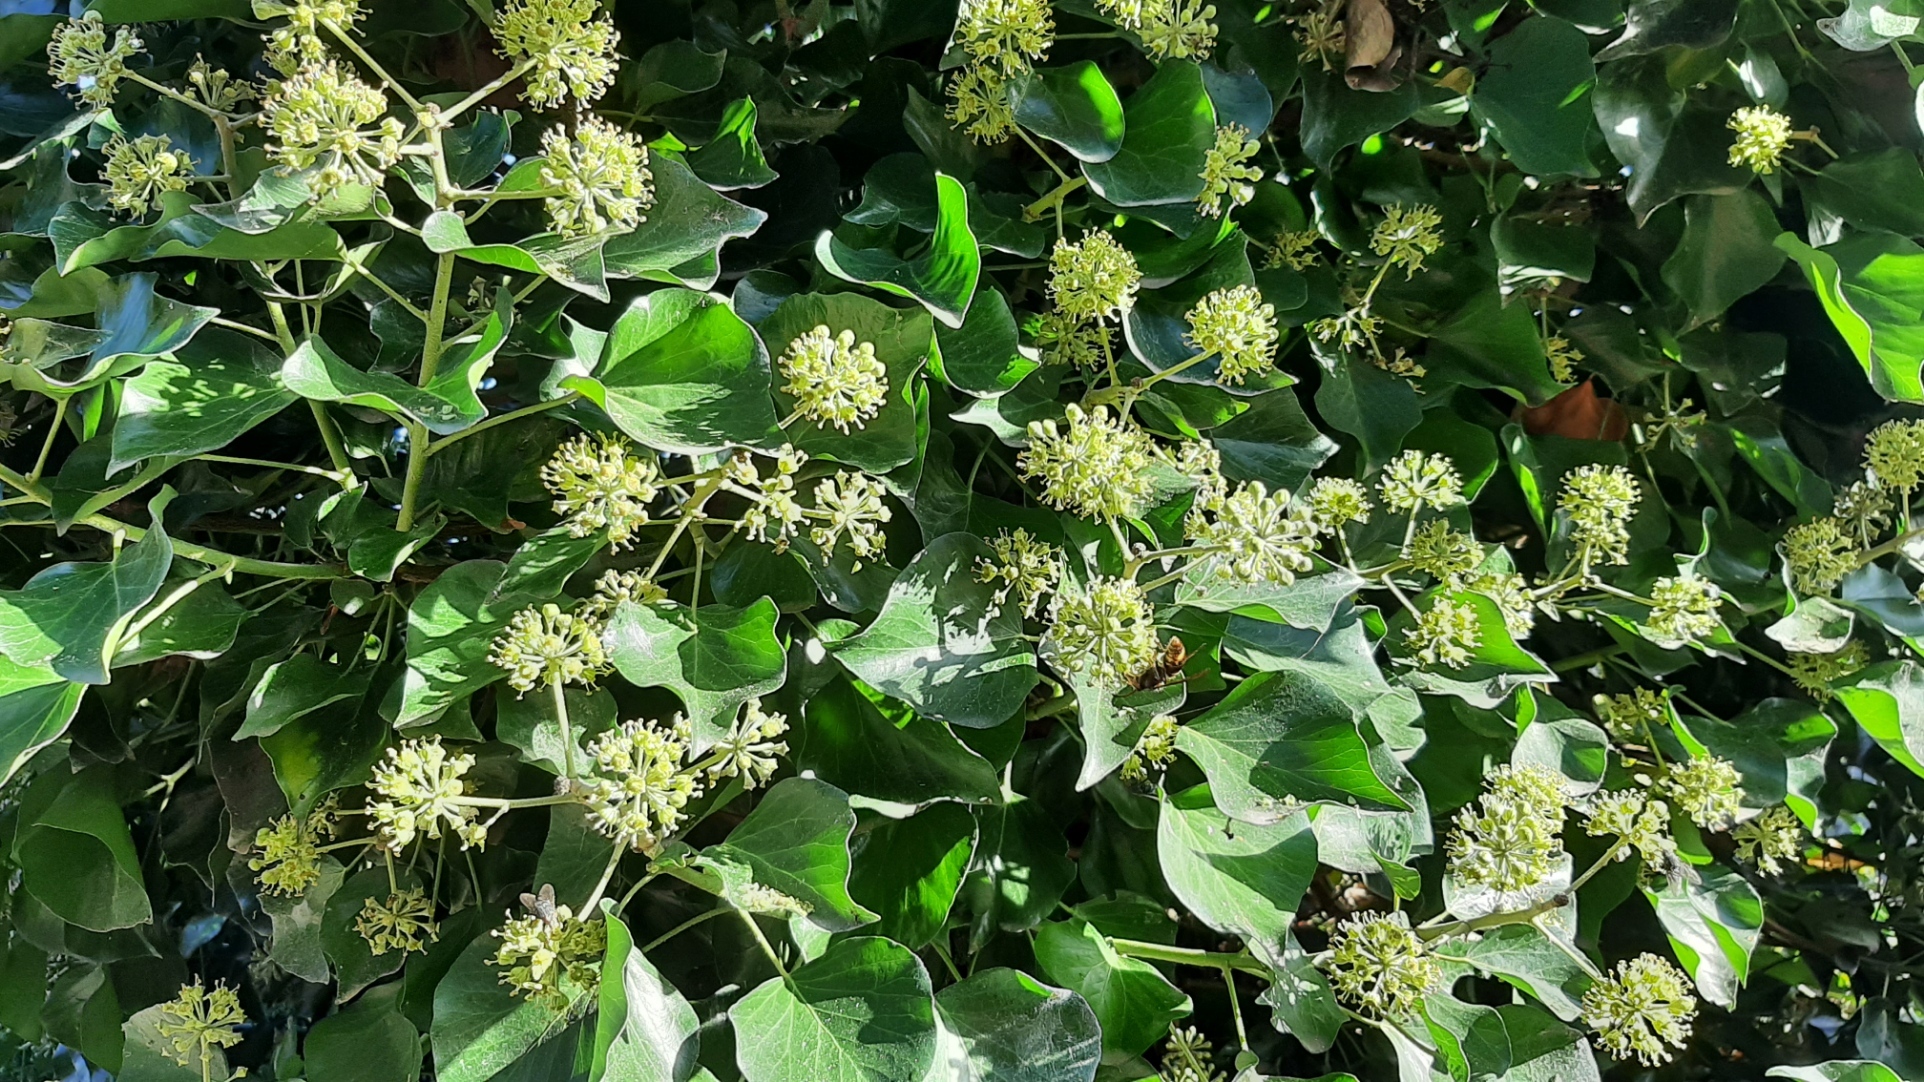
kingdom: Animalia
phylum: Arthropoda
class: Insecta
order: Hymenoptera
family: Vespidae
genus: Vespa
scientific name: Vespa velutina
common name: Asian hornet
